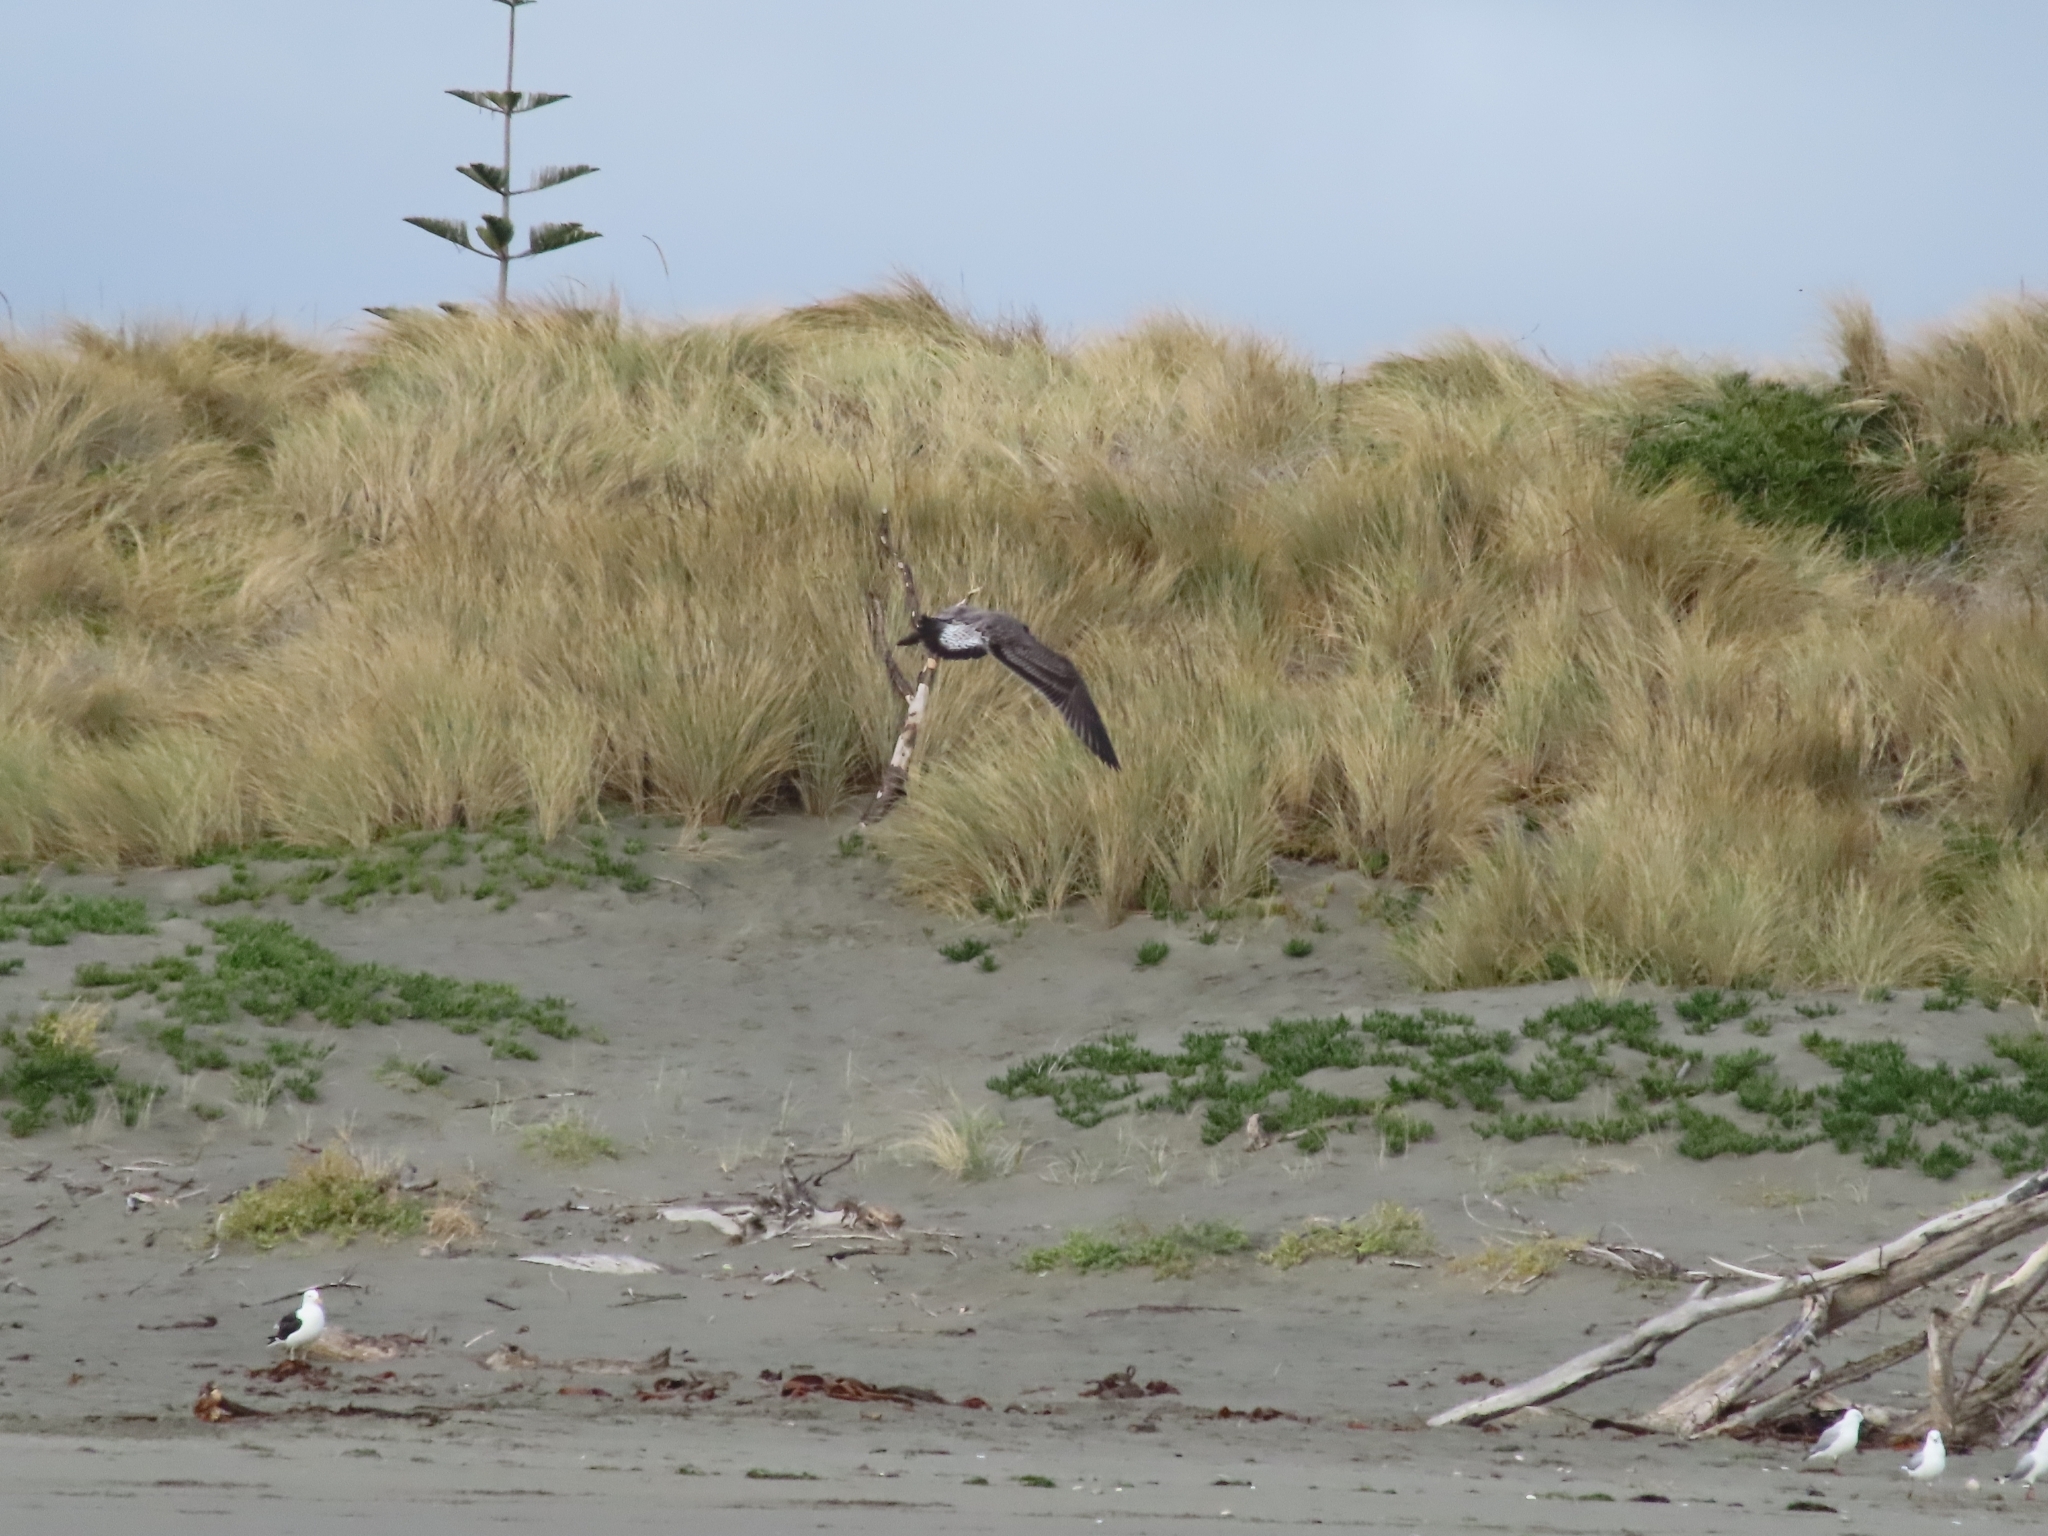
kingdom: Animalia
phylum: Chordata
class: Aves
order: Charadriiformes
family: Laridae
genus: Larus
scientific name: Larus dominicanus
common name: Kelp gull
